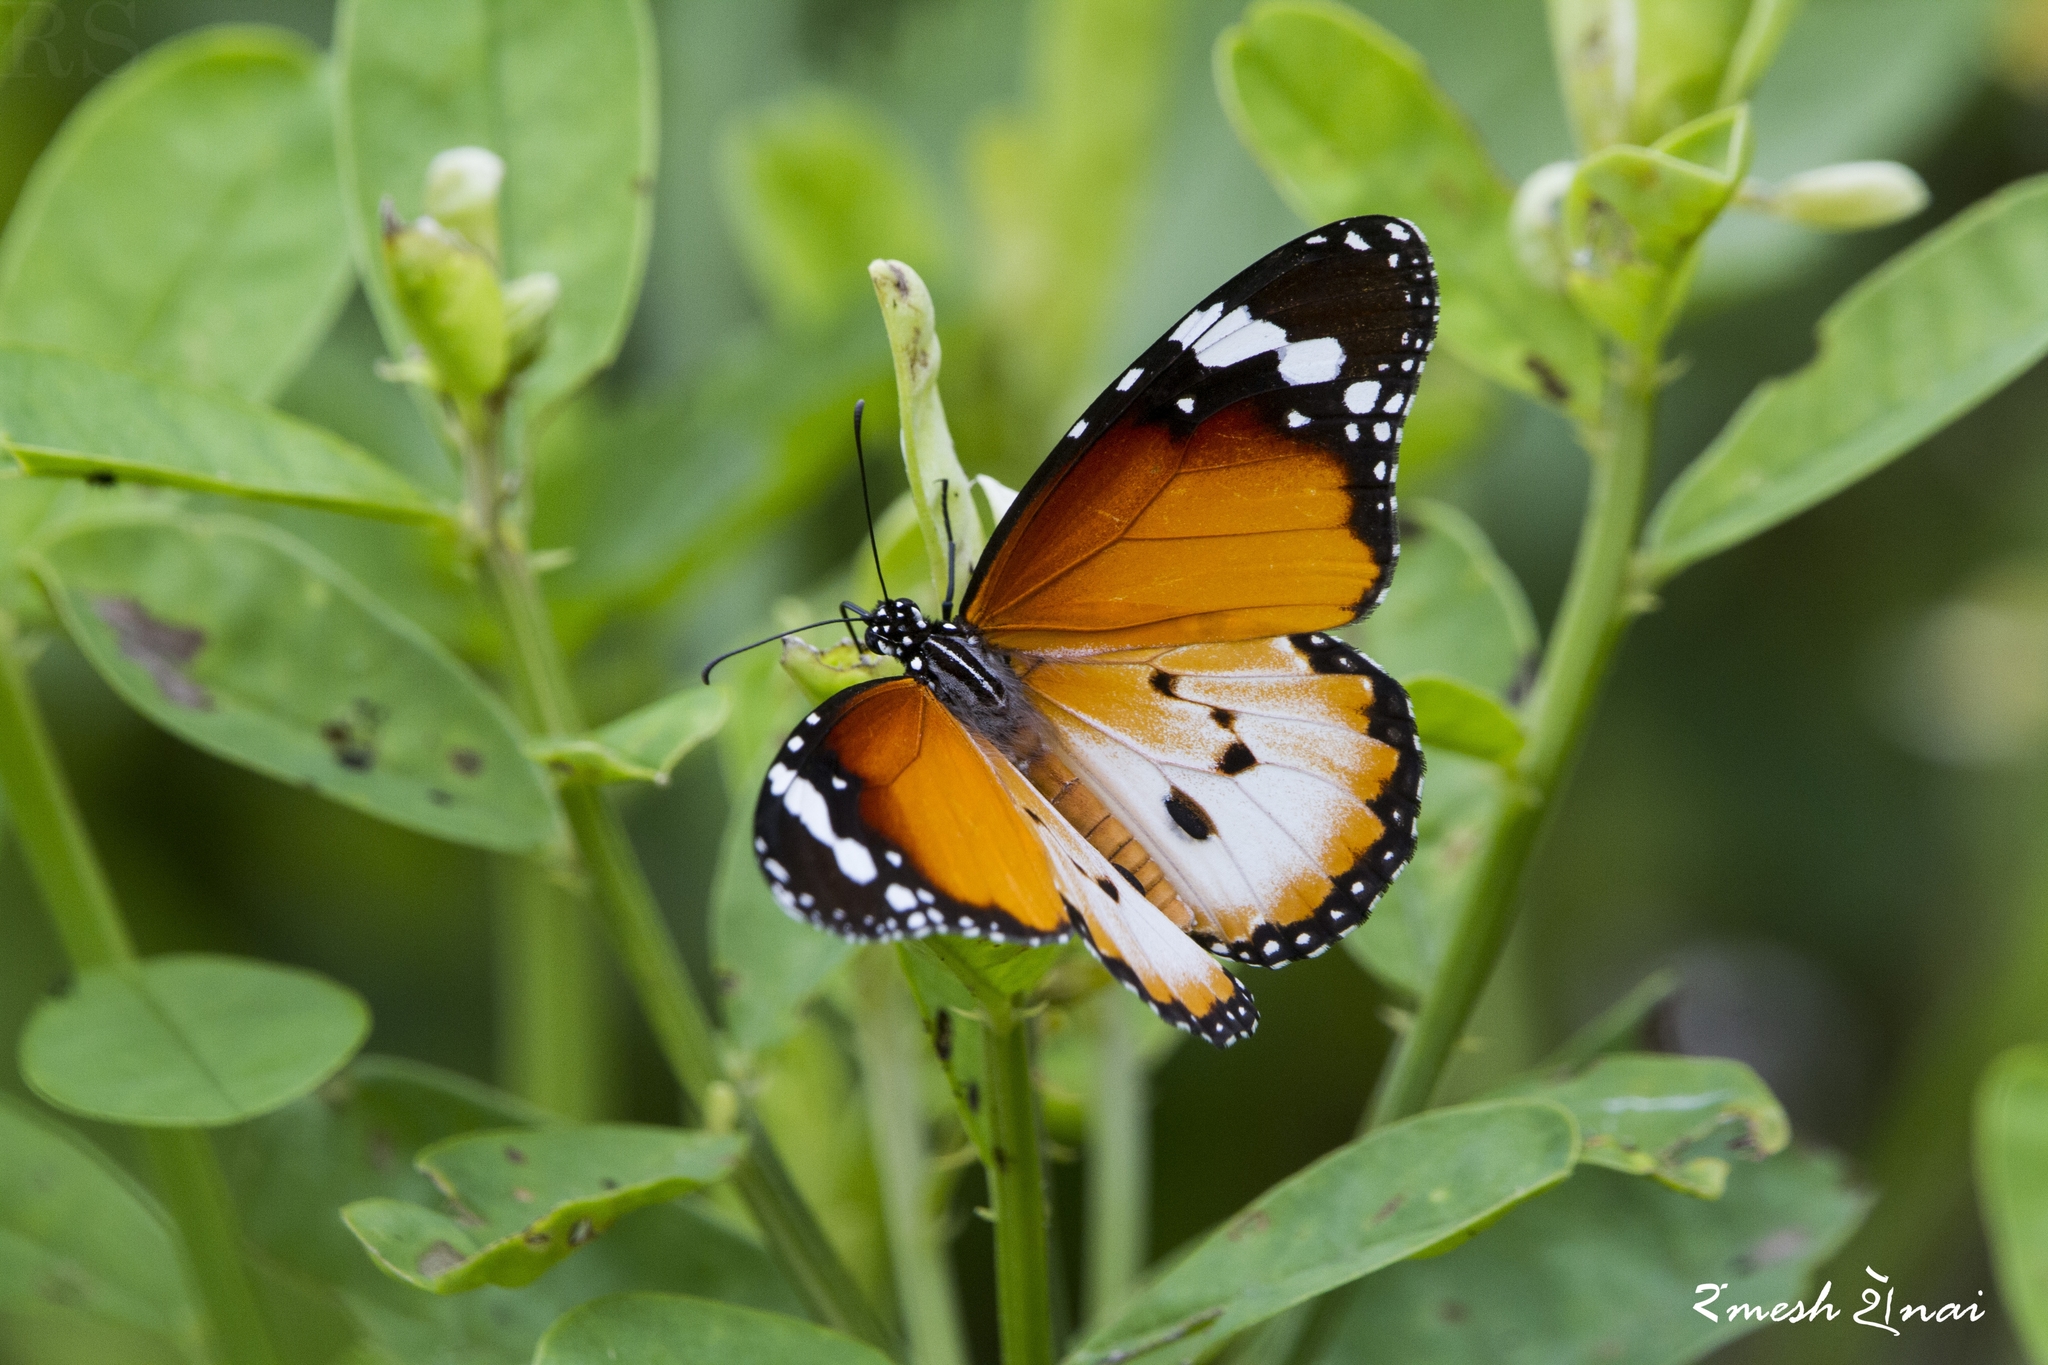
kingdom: Animalia
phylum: Arthropoda
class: Insecta
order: Lepidoptera
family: Nymphalidae
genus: Danaus
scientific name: Danaus chrysippus
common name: Plain tiger
